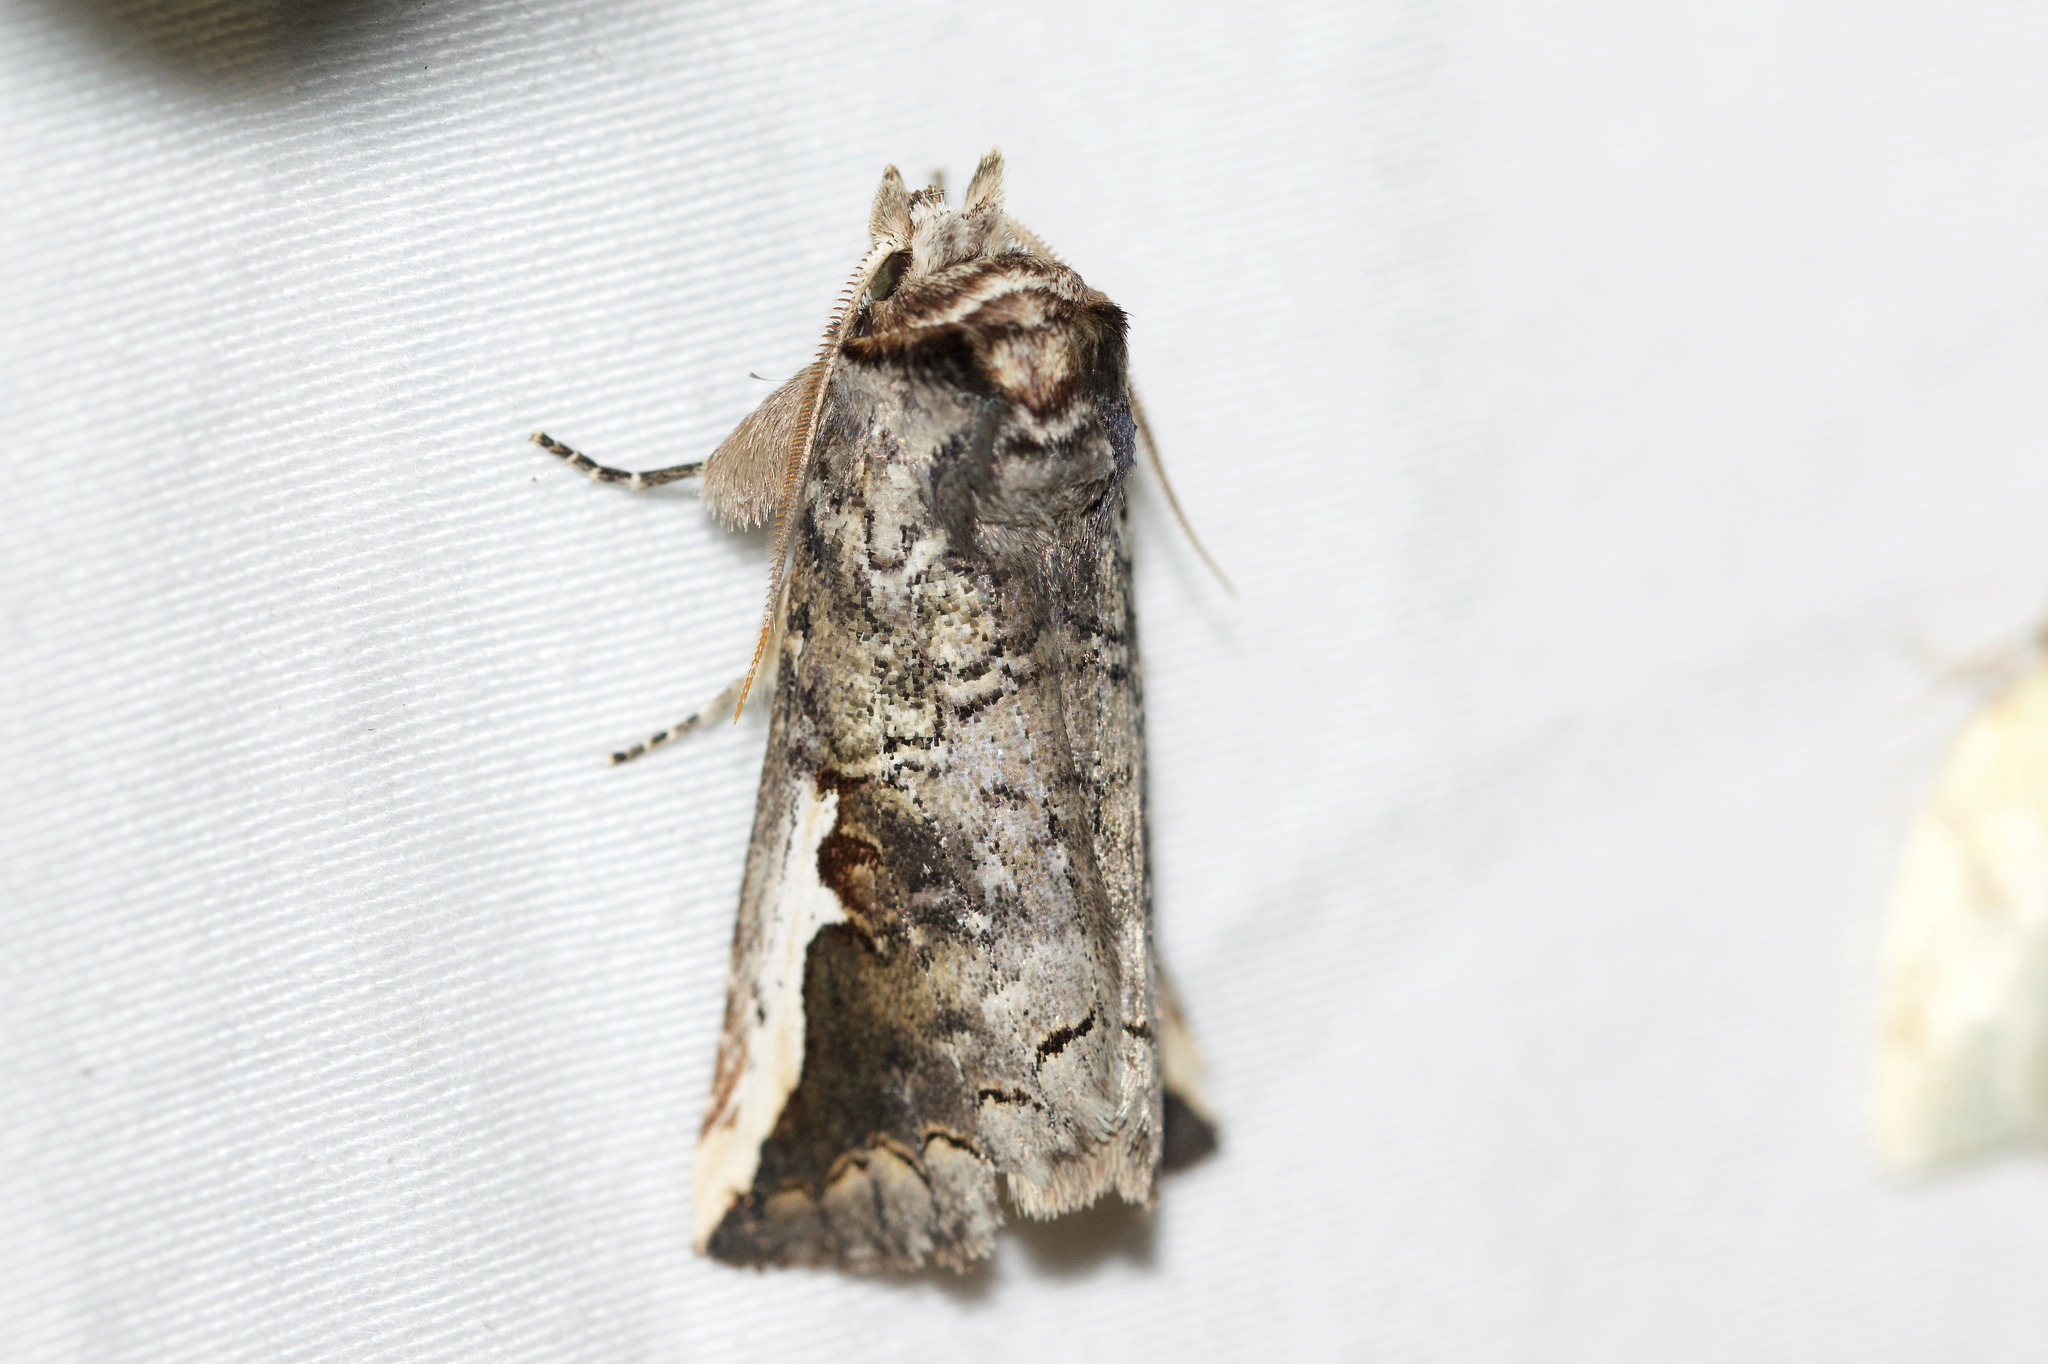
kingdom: Animalia
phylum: Arthropoda
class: Insecta
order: Lepidoptera
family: Notodontidae
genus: Symmerista
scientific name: Symmerista
